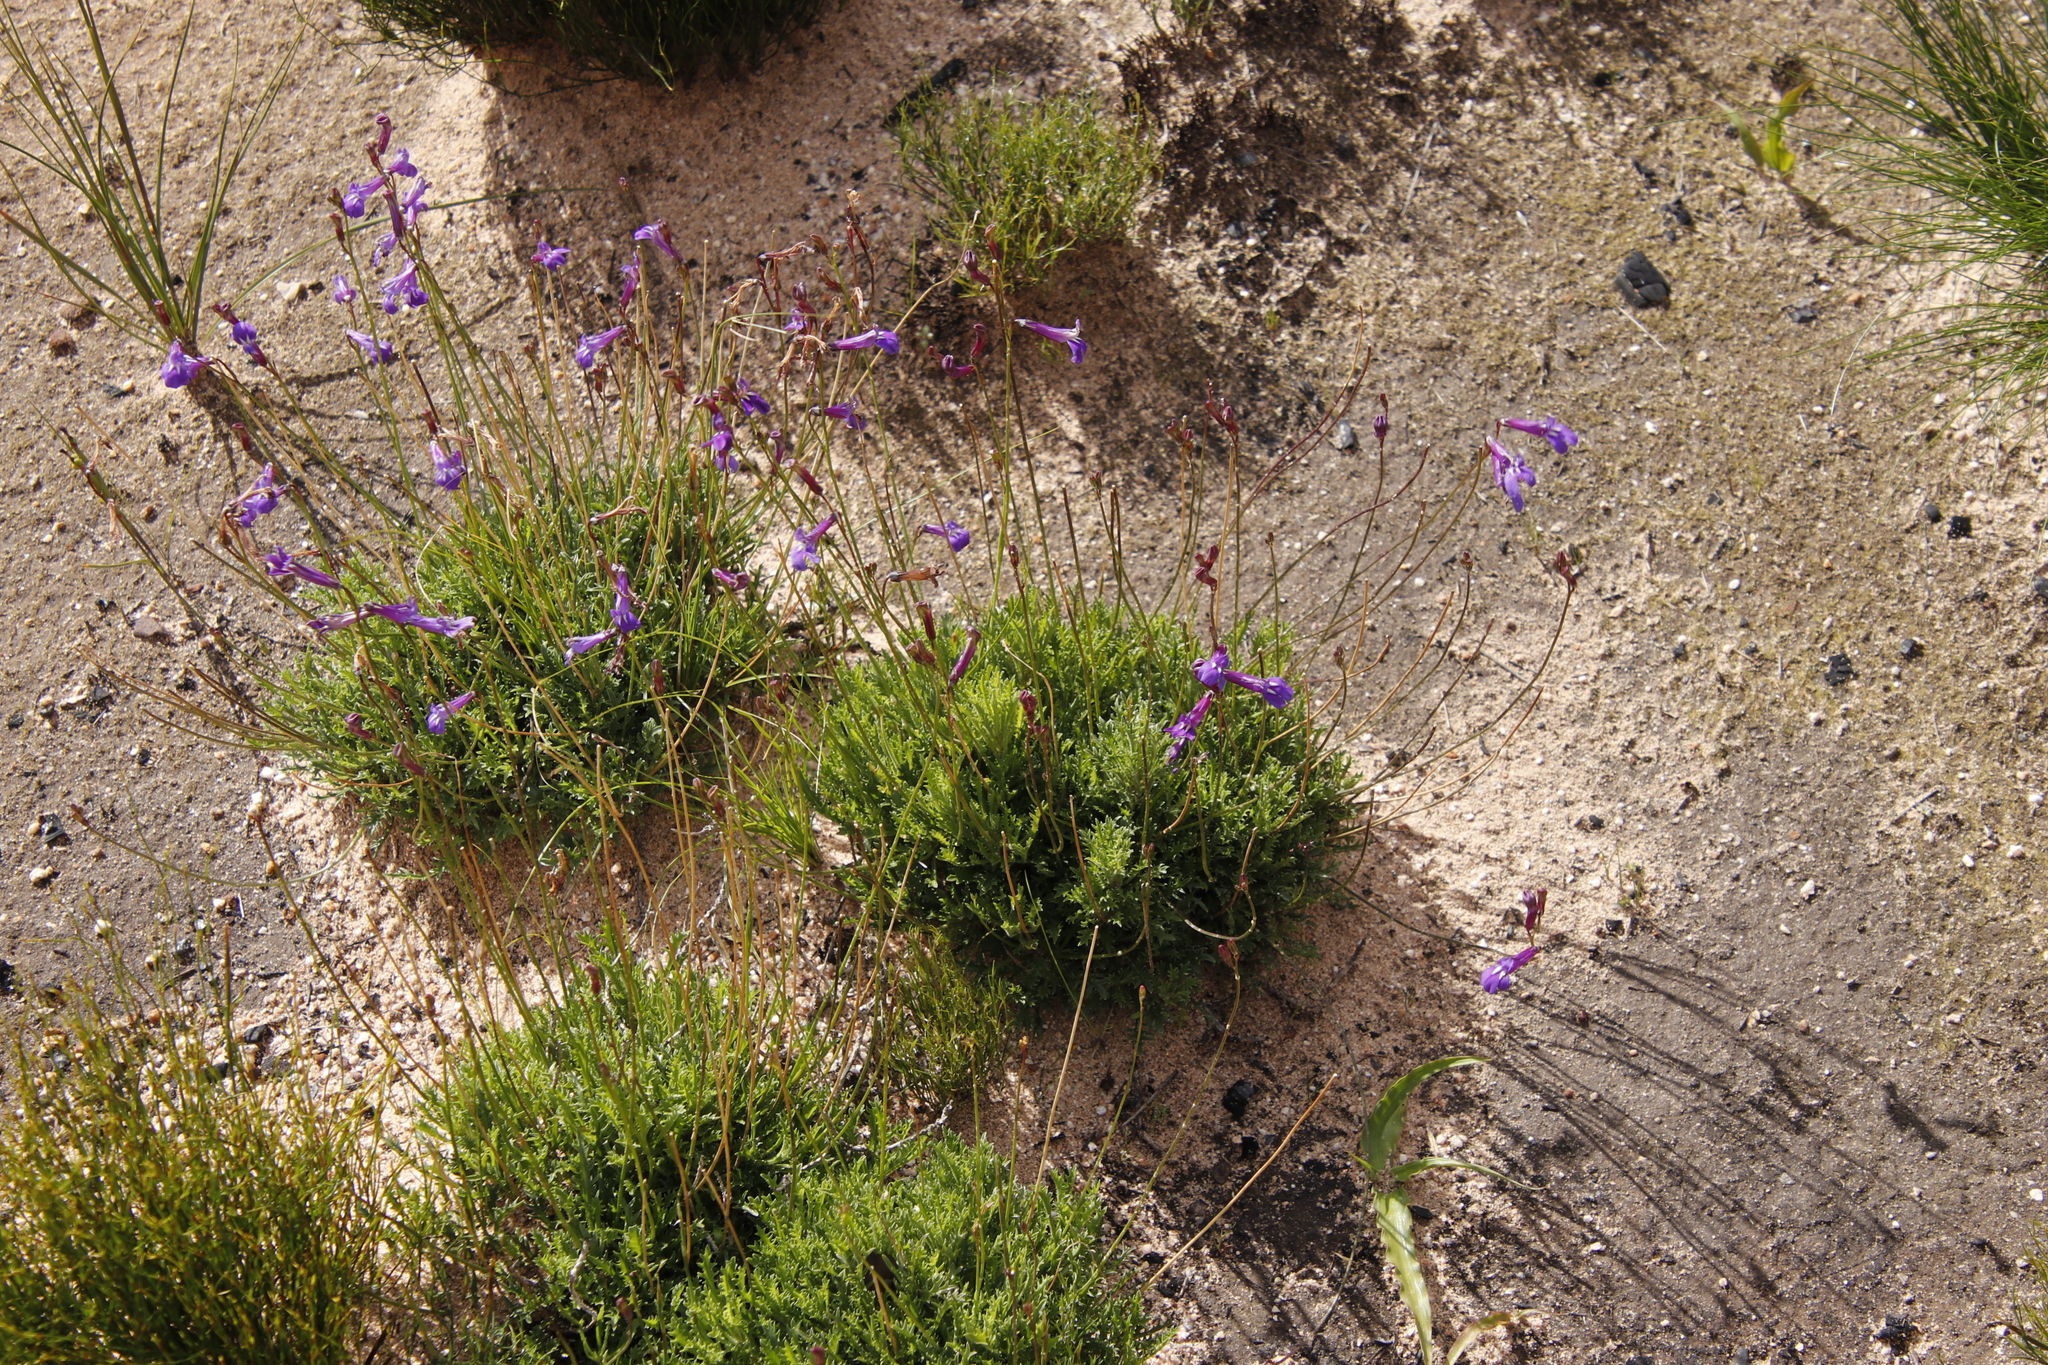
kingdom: Plantae
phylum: Tracheophyta
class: Magnoliopsida
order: Asterales
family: Campanulaceae
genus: Lobelia
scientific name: Lobelia coronopifolia
